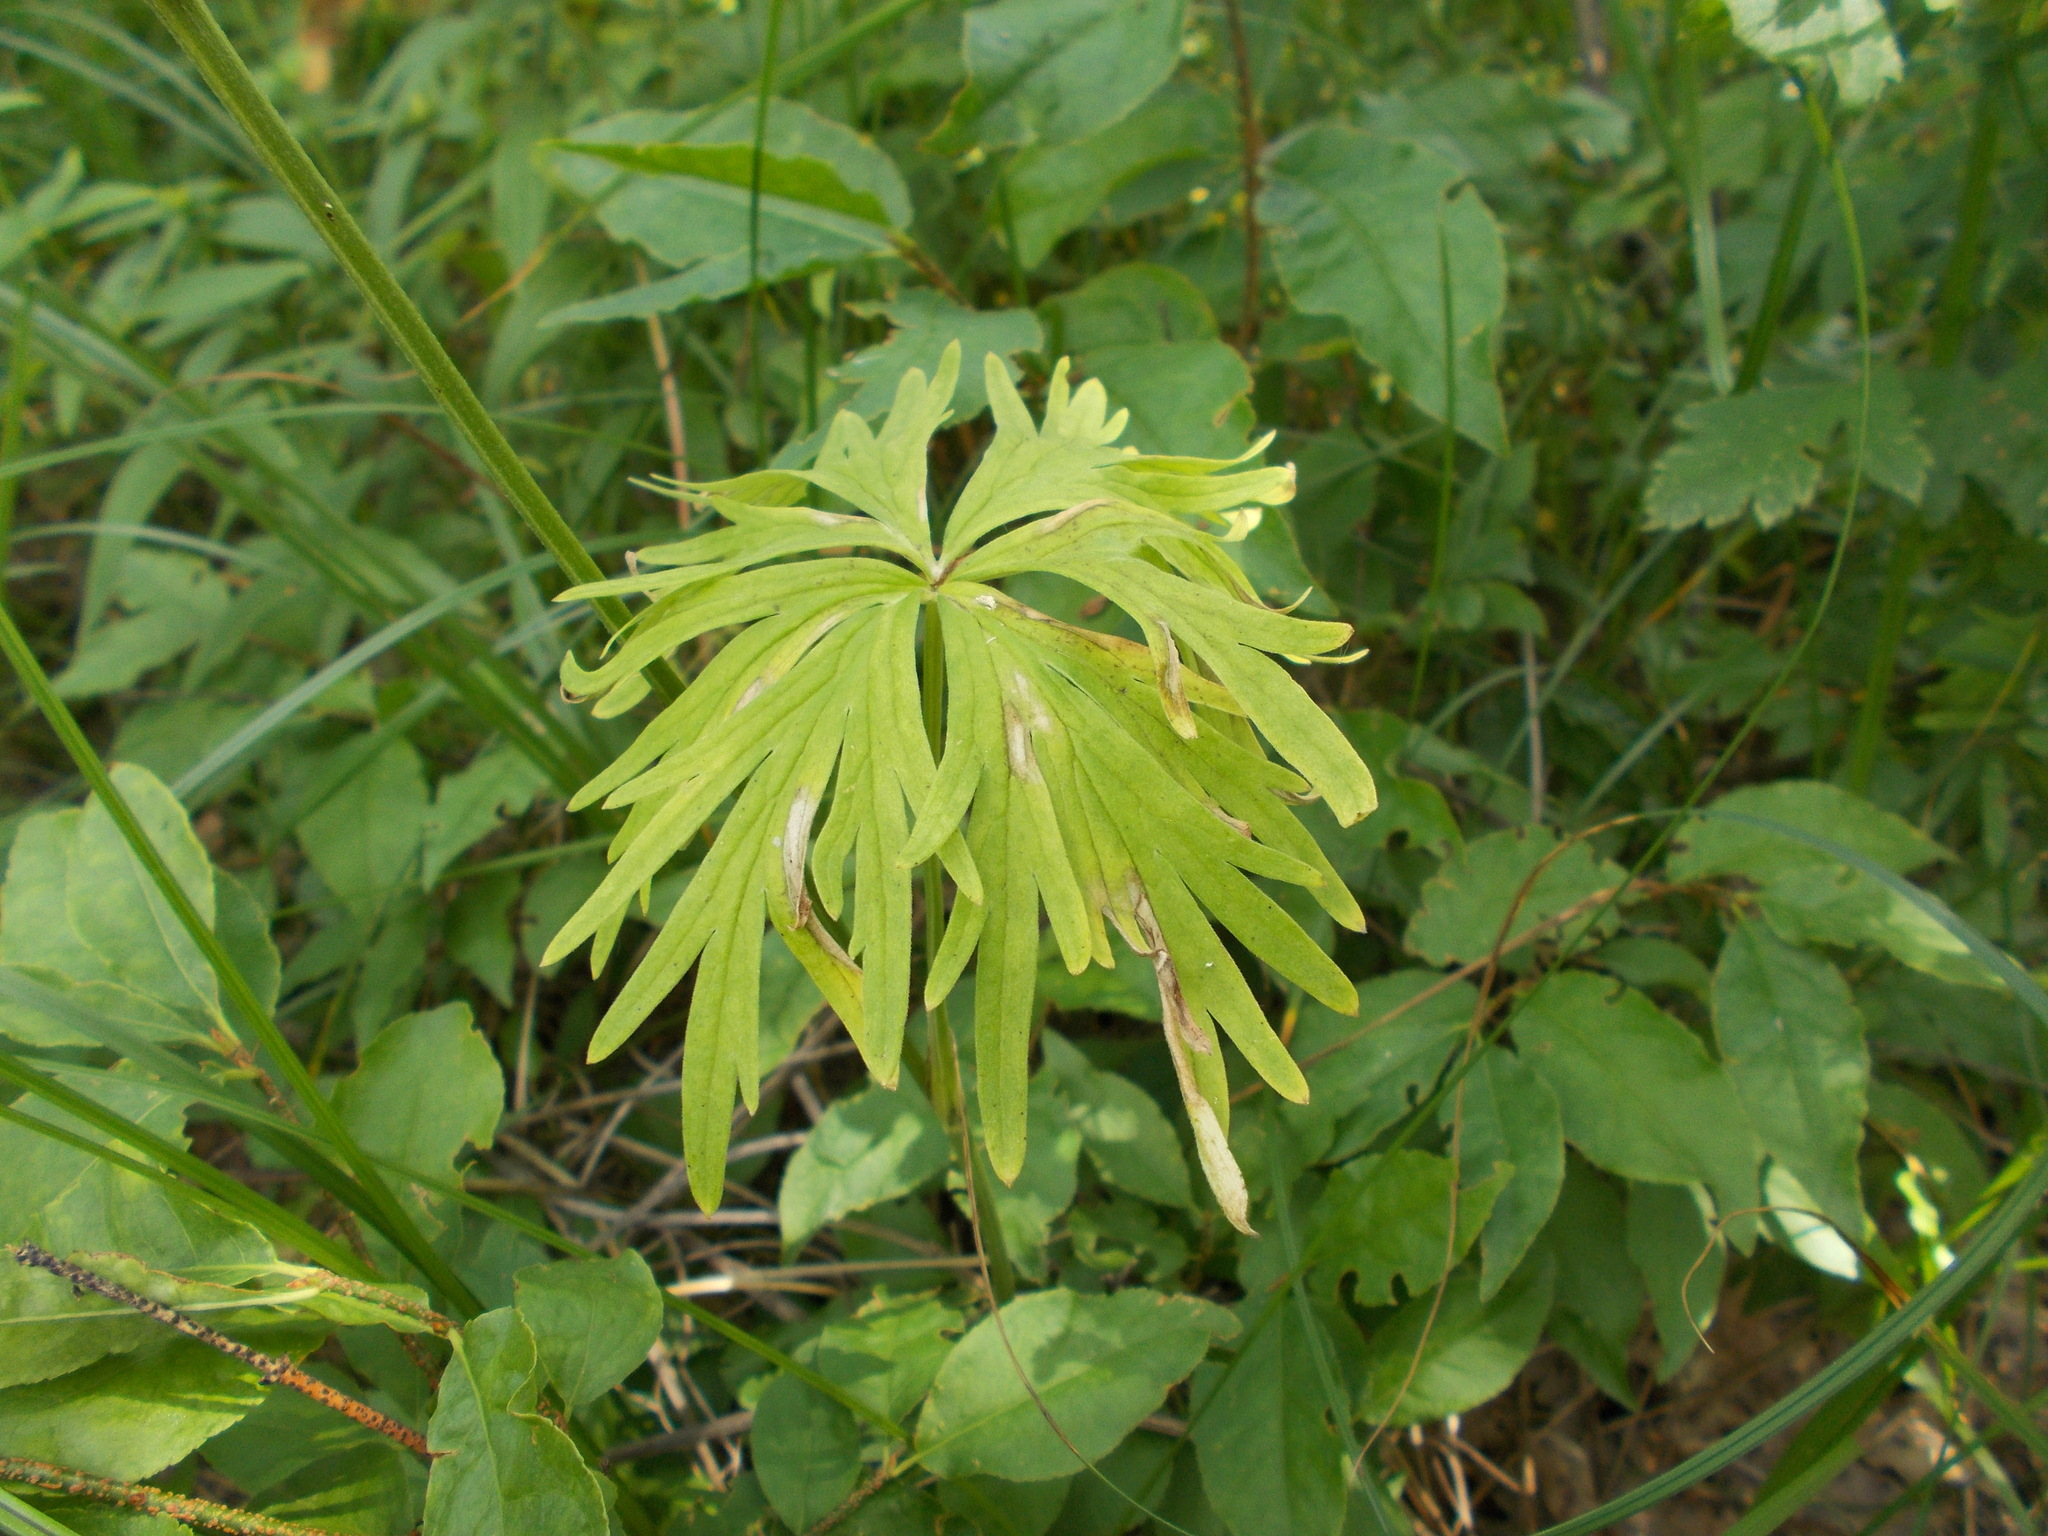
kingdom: Plantae
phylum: Tracheophyta
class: Magnoliopsida
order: Ranunculales
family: Ranunculaceae
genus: Delphinium
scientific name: Delphinium schmalhausenii
